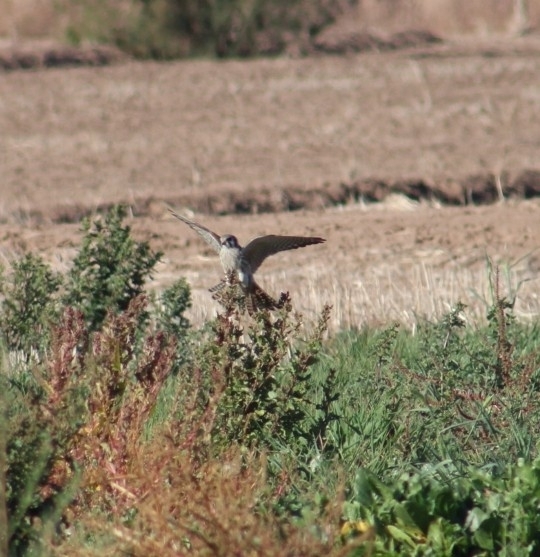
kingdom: Animalia
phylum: Chordata
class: Aves
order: Falconiformes
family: Falconidae
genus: Falco
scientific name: Falco sparverius
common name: American kestrel
